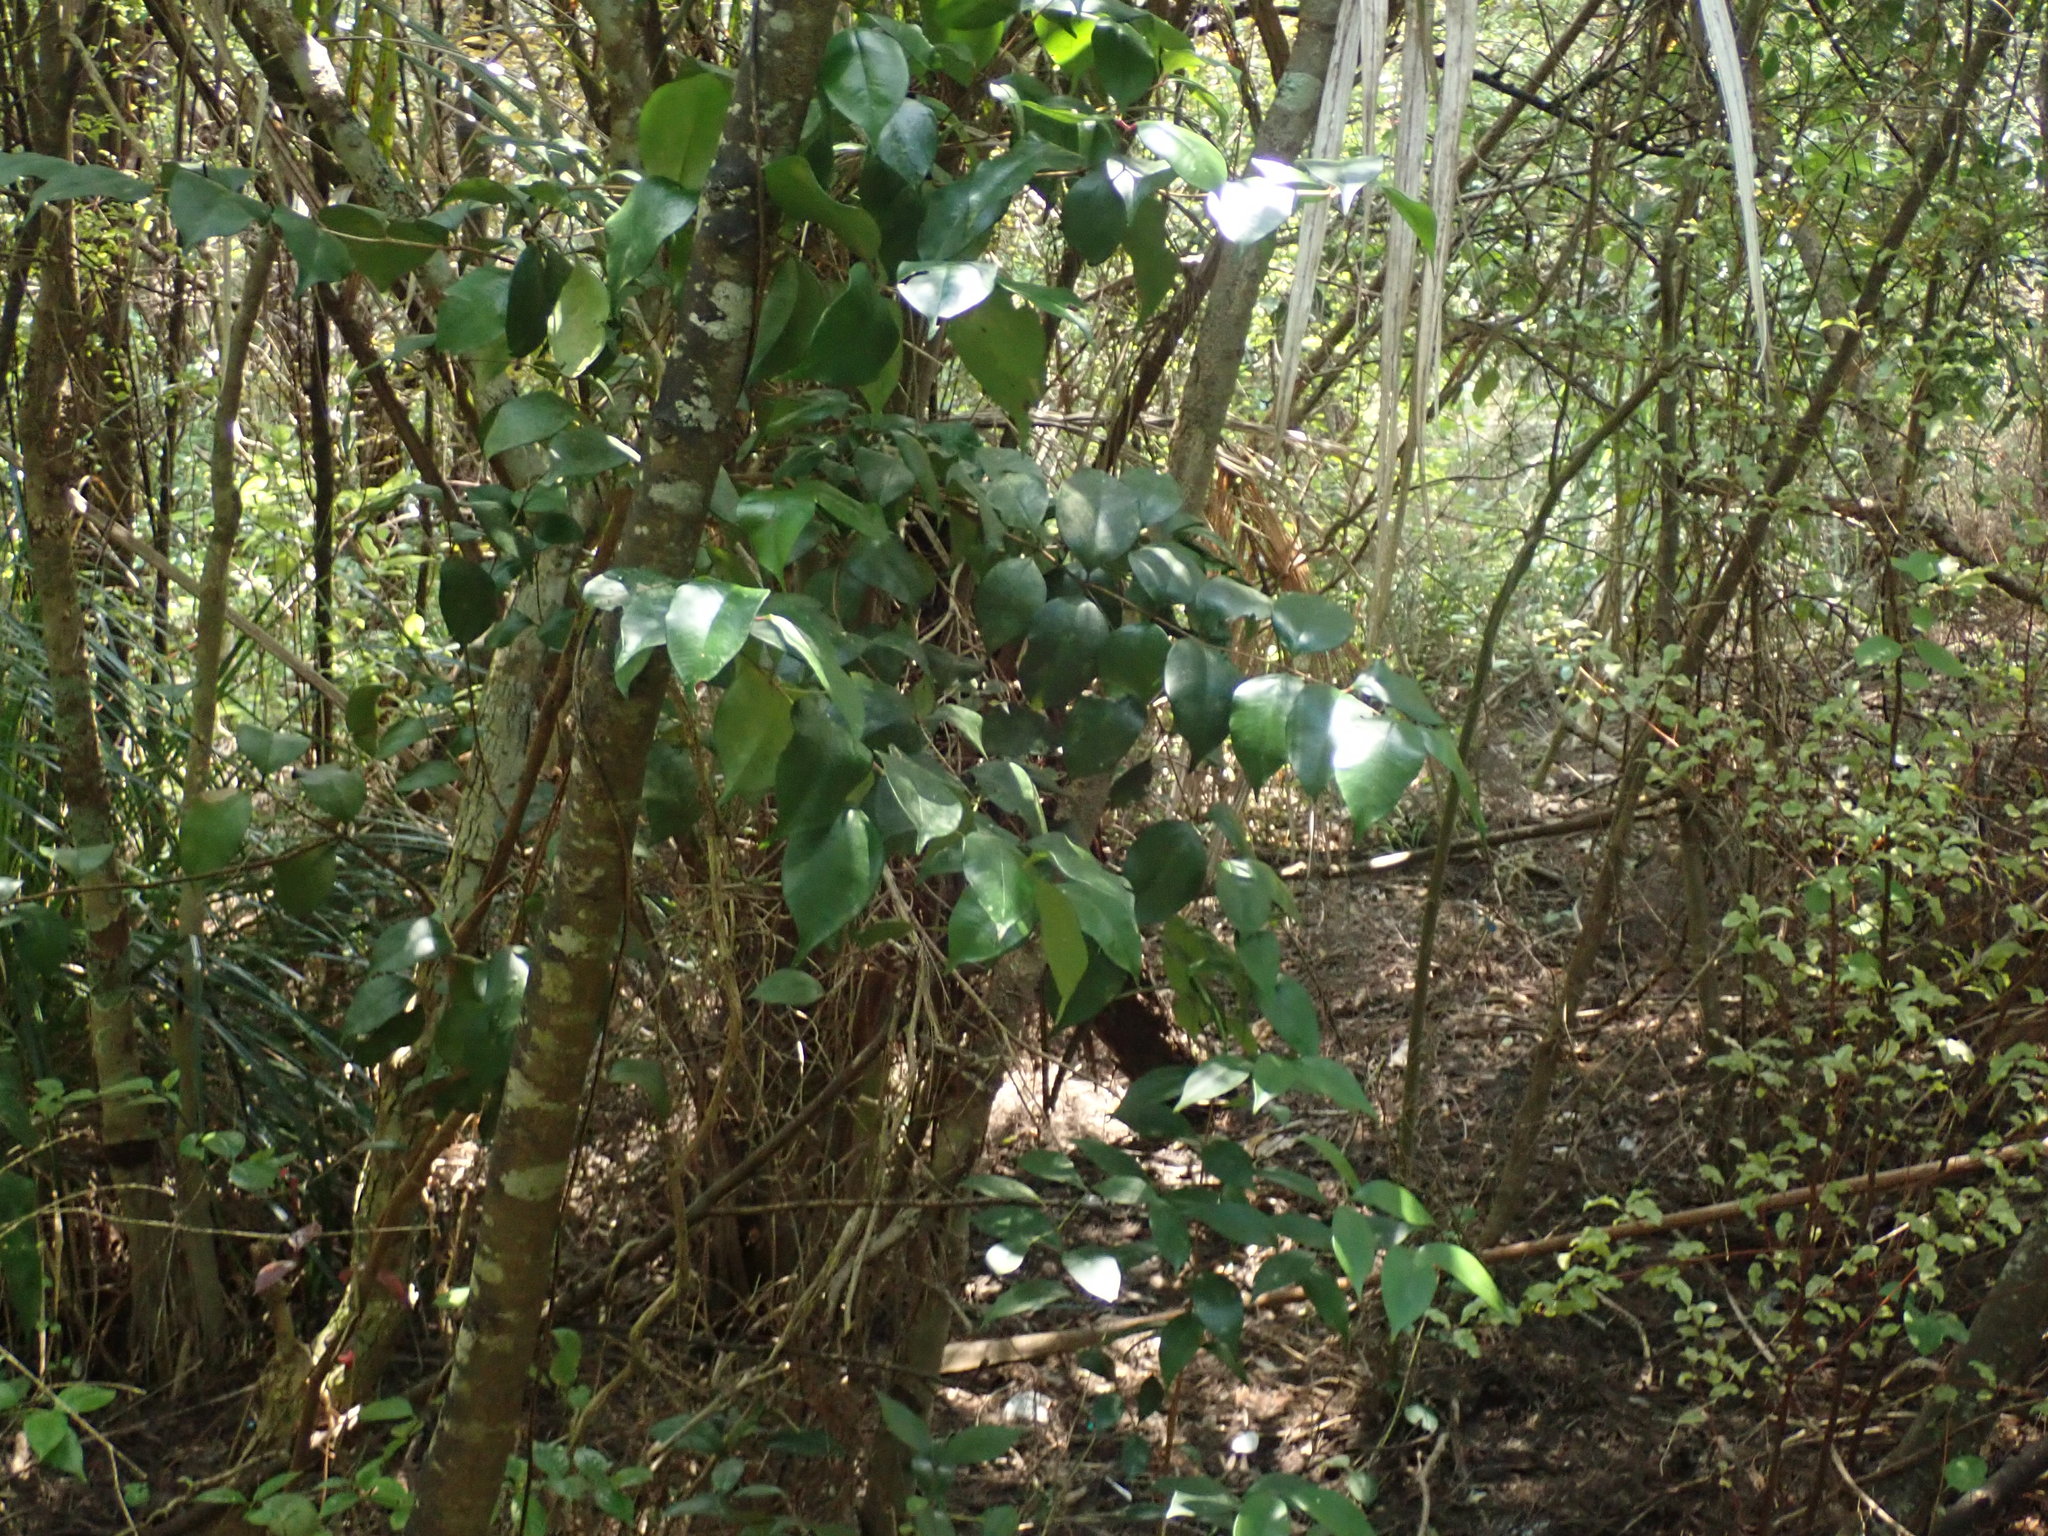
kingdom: Plantae
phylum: Tracheophyta
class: Magnoliopsida
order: Ericales
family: Primulaceae
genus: Myrsine
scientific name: Myrsine australis
